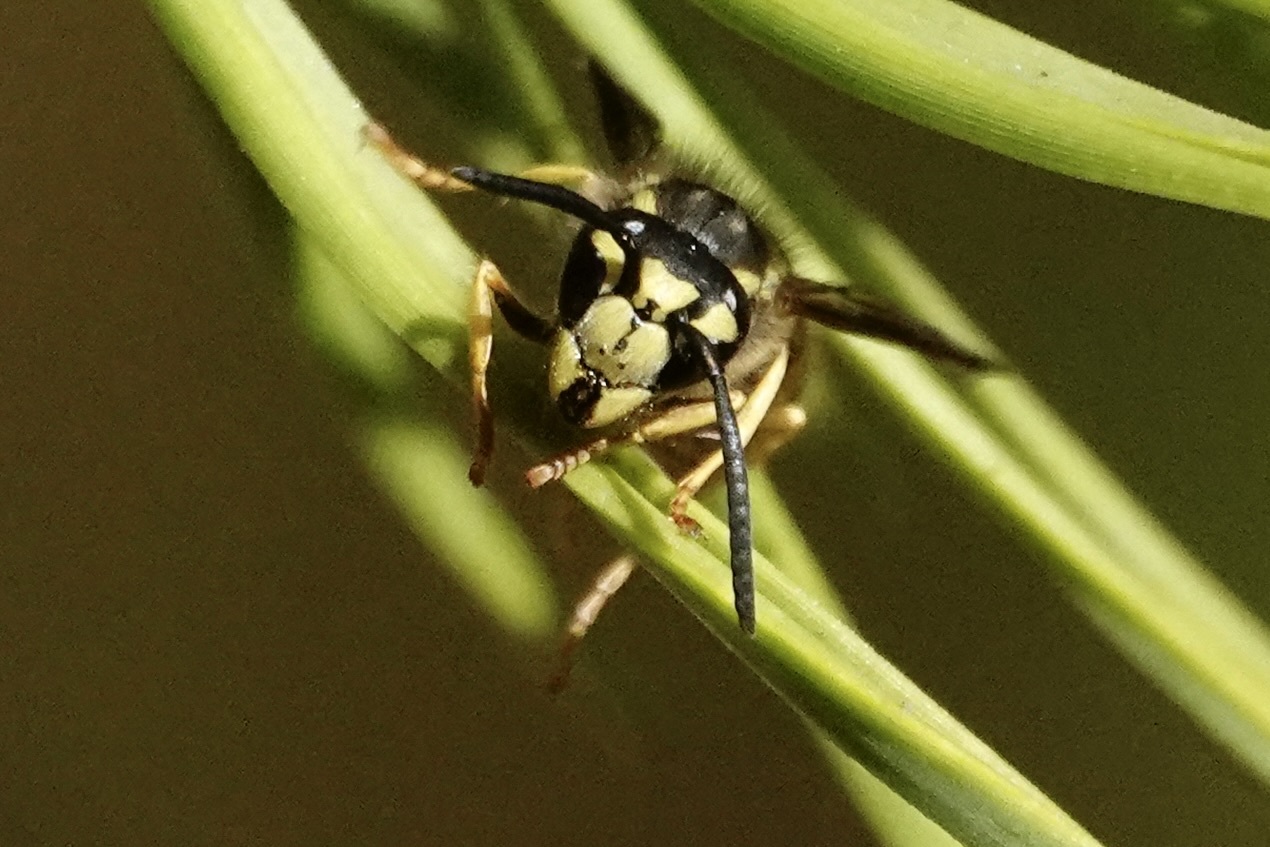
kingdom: Animalia
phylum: Arthropoda
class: Insecta
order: Hymenoptera
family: Vespidae
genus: Vespula
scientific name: Vespula maculifrons
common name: Eastern yellowjacket
